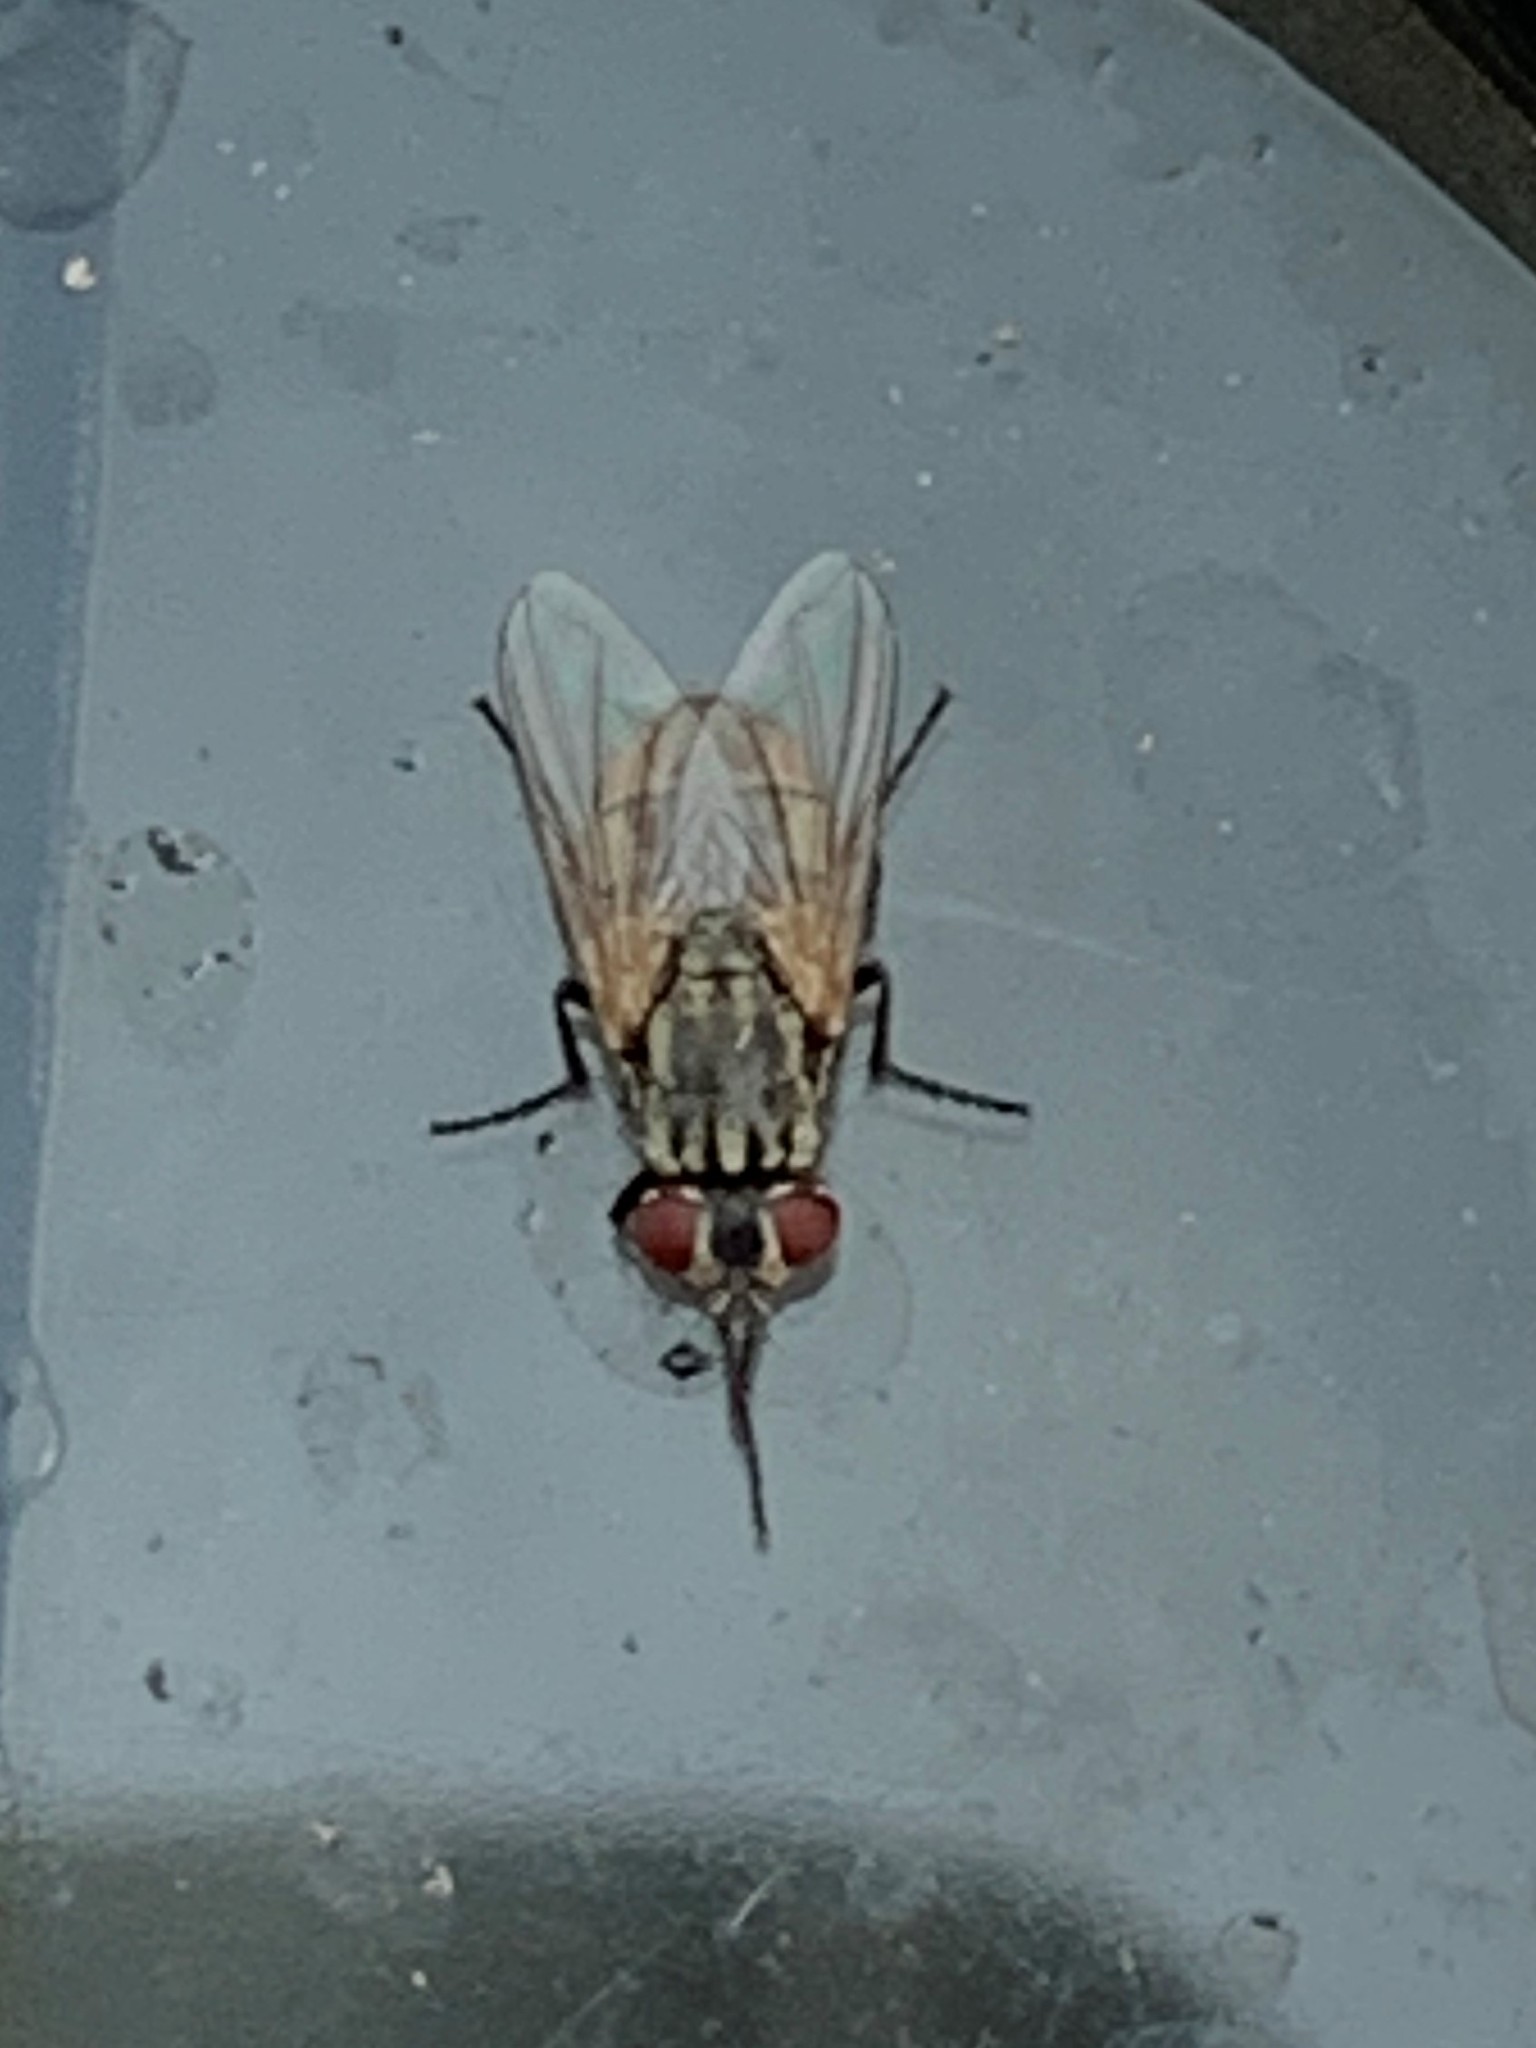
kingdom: Animalia
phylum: Arthropoda
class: Insecta
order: Diptera
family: Muscidae
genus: Musca
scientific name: Musca domestica
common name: House fly
